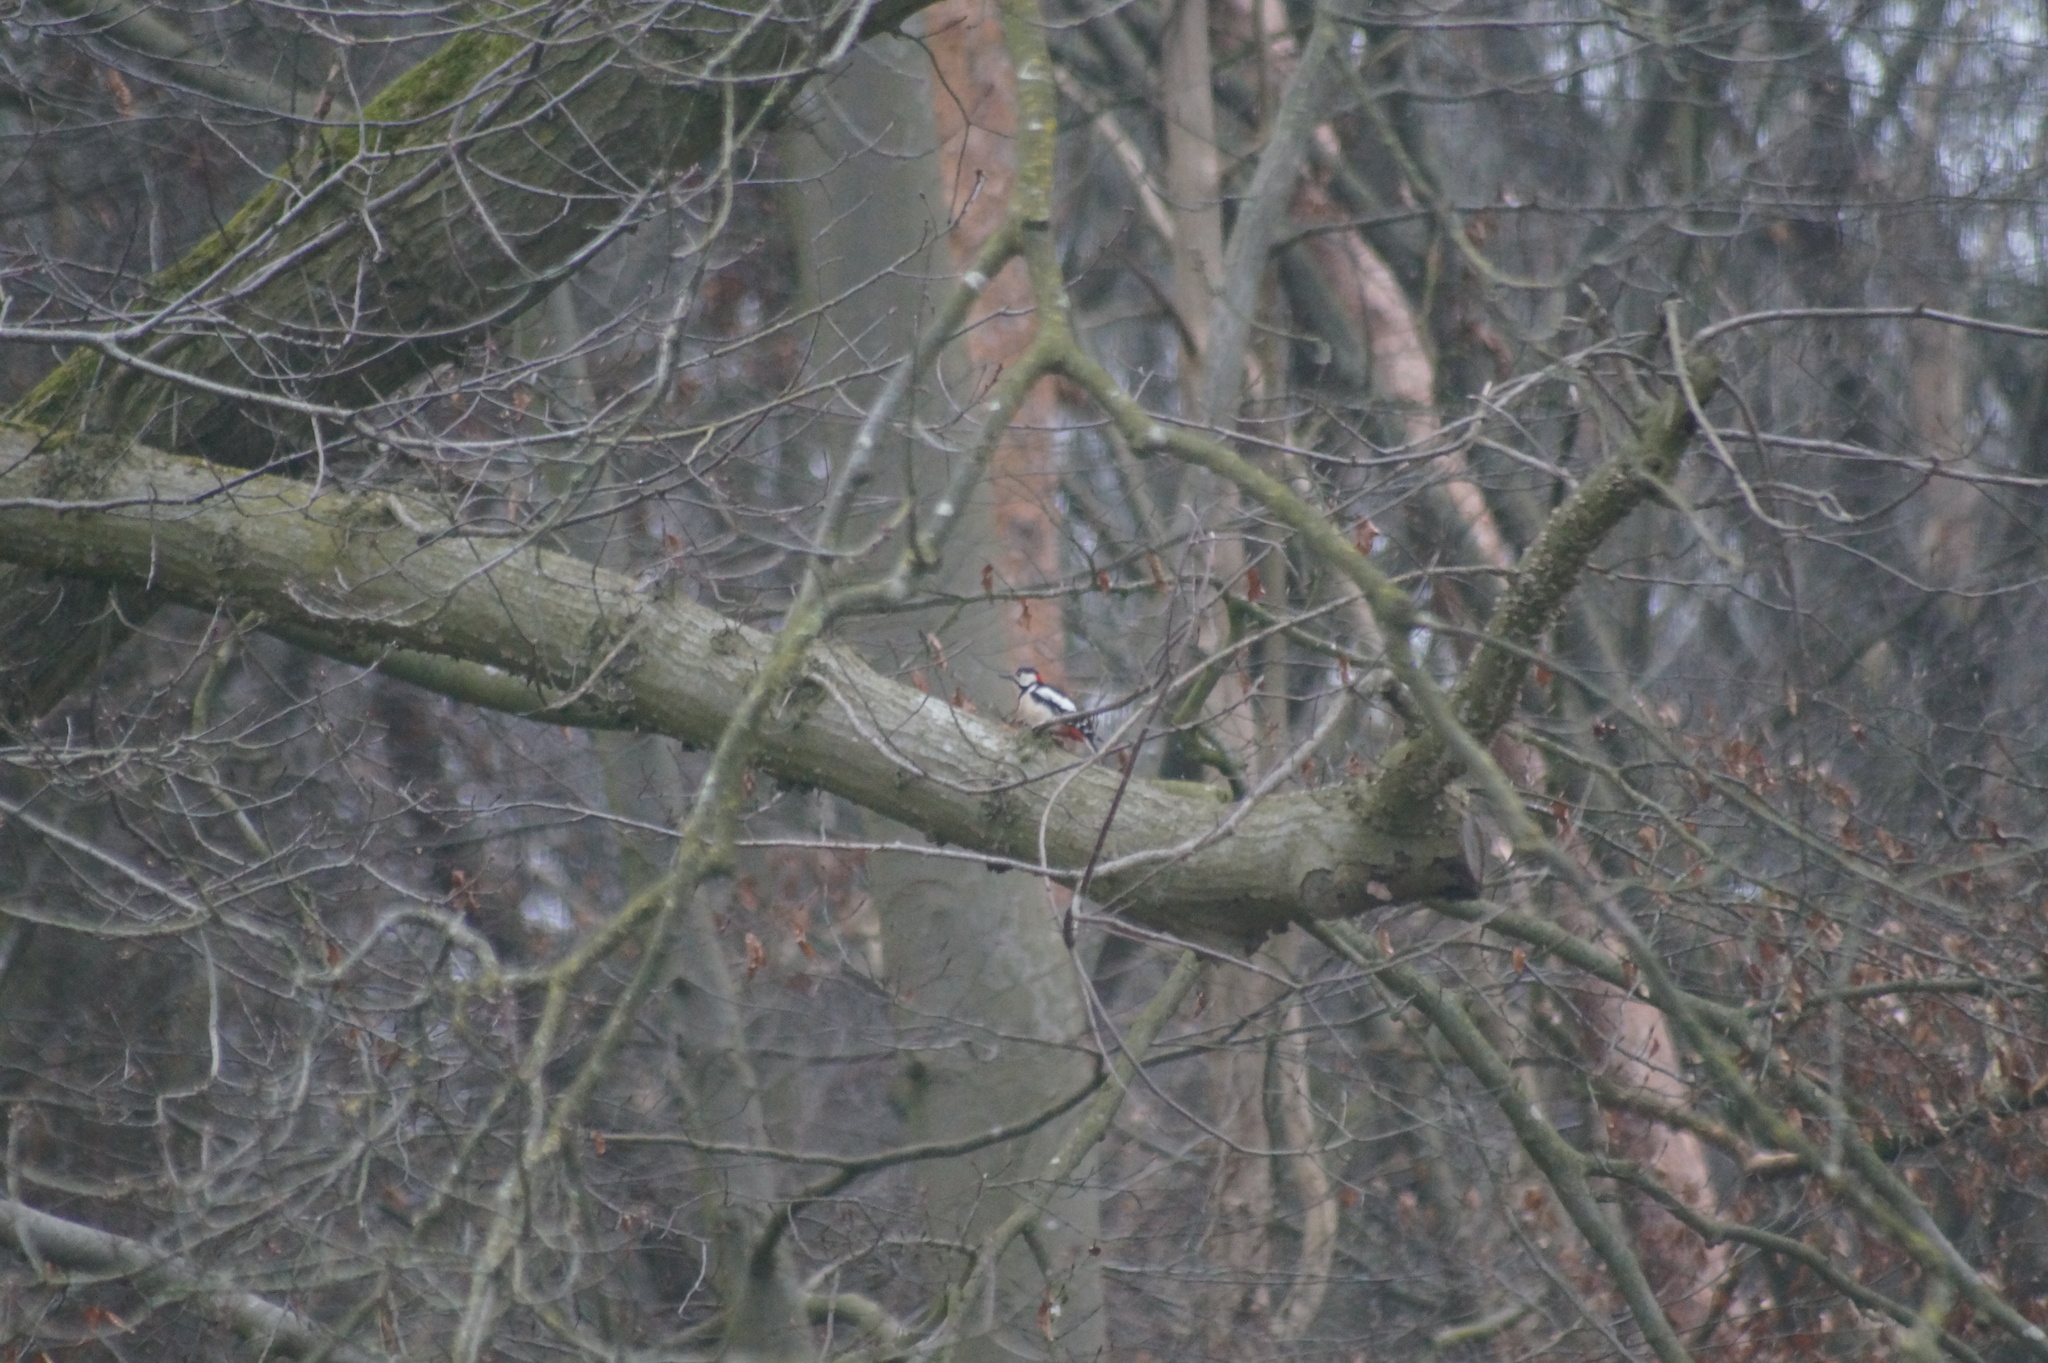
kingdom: Animalia
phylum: Chordata
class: Aves
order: Piciformes
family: Picidae
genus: Dendrocopos
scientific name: Dendrocopos major
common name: Great spotted woodpecker
